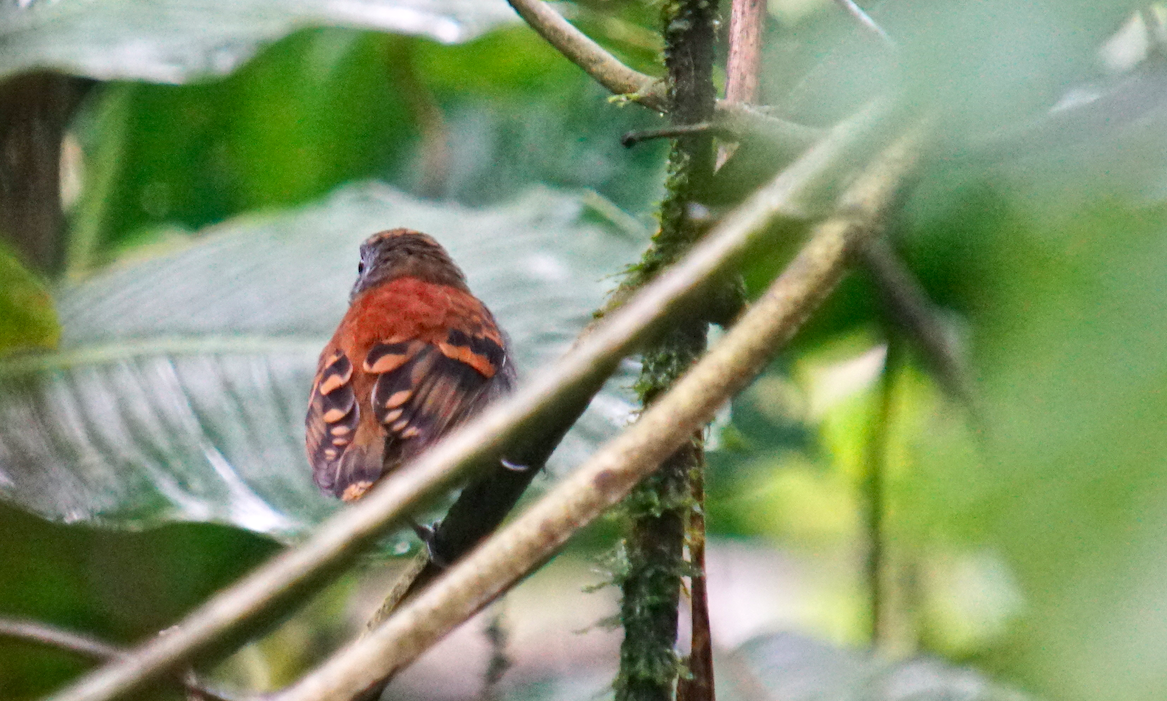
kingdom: Animalia
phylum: Chordata
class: Aves
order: Passeriformes
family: Thamnophilidae
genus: Hylophylax
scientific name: Hylophylax naevioides
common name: Spotted antbird
